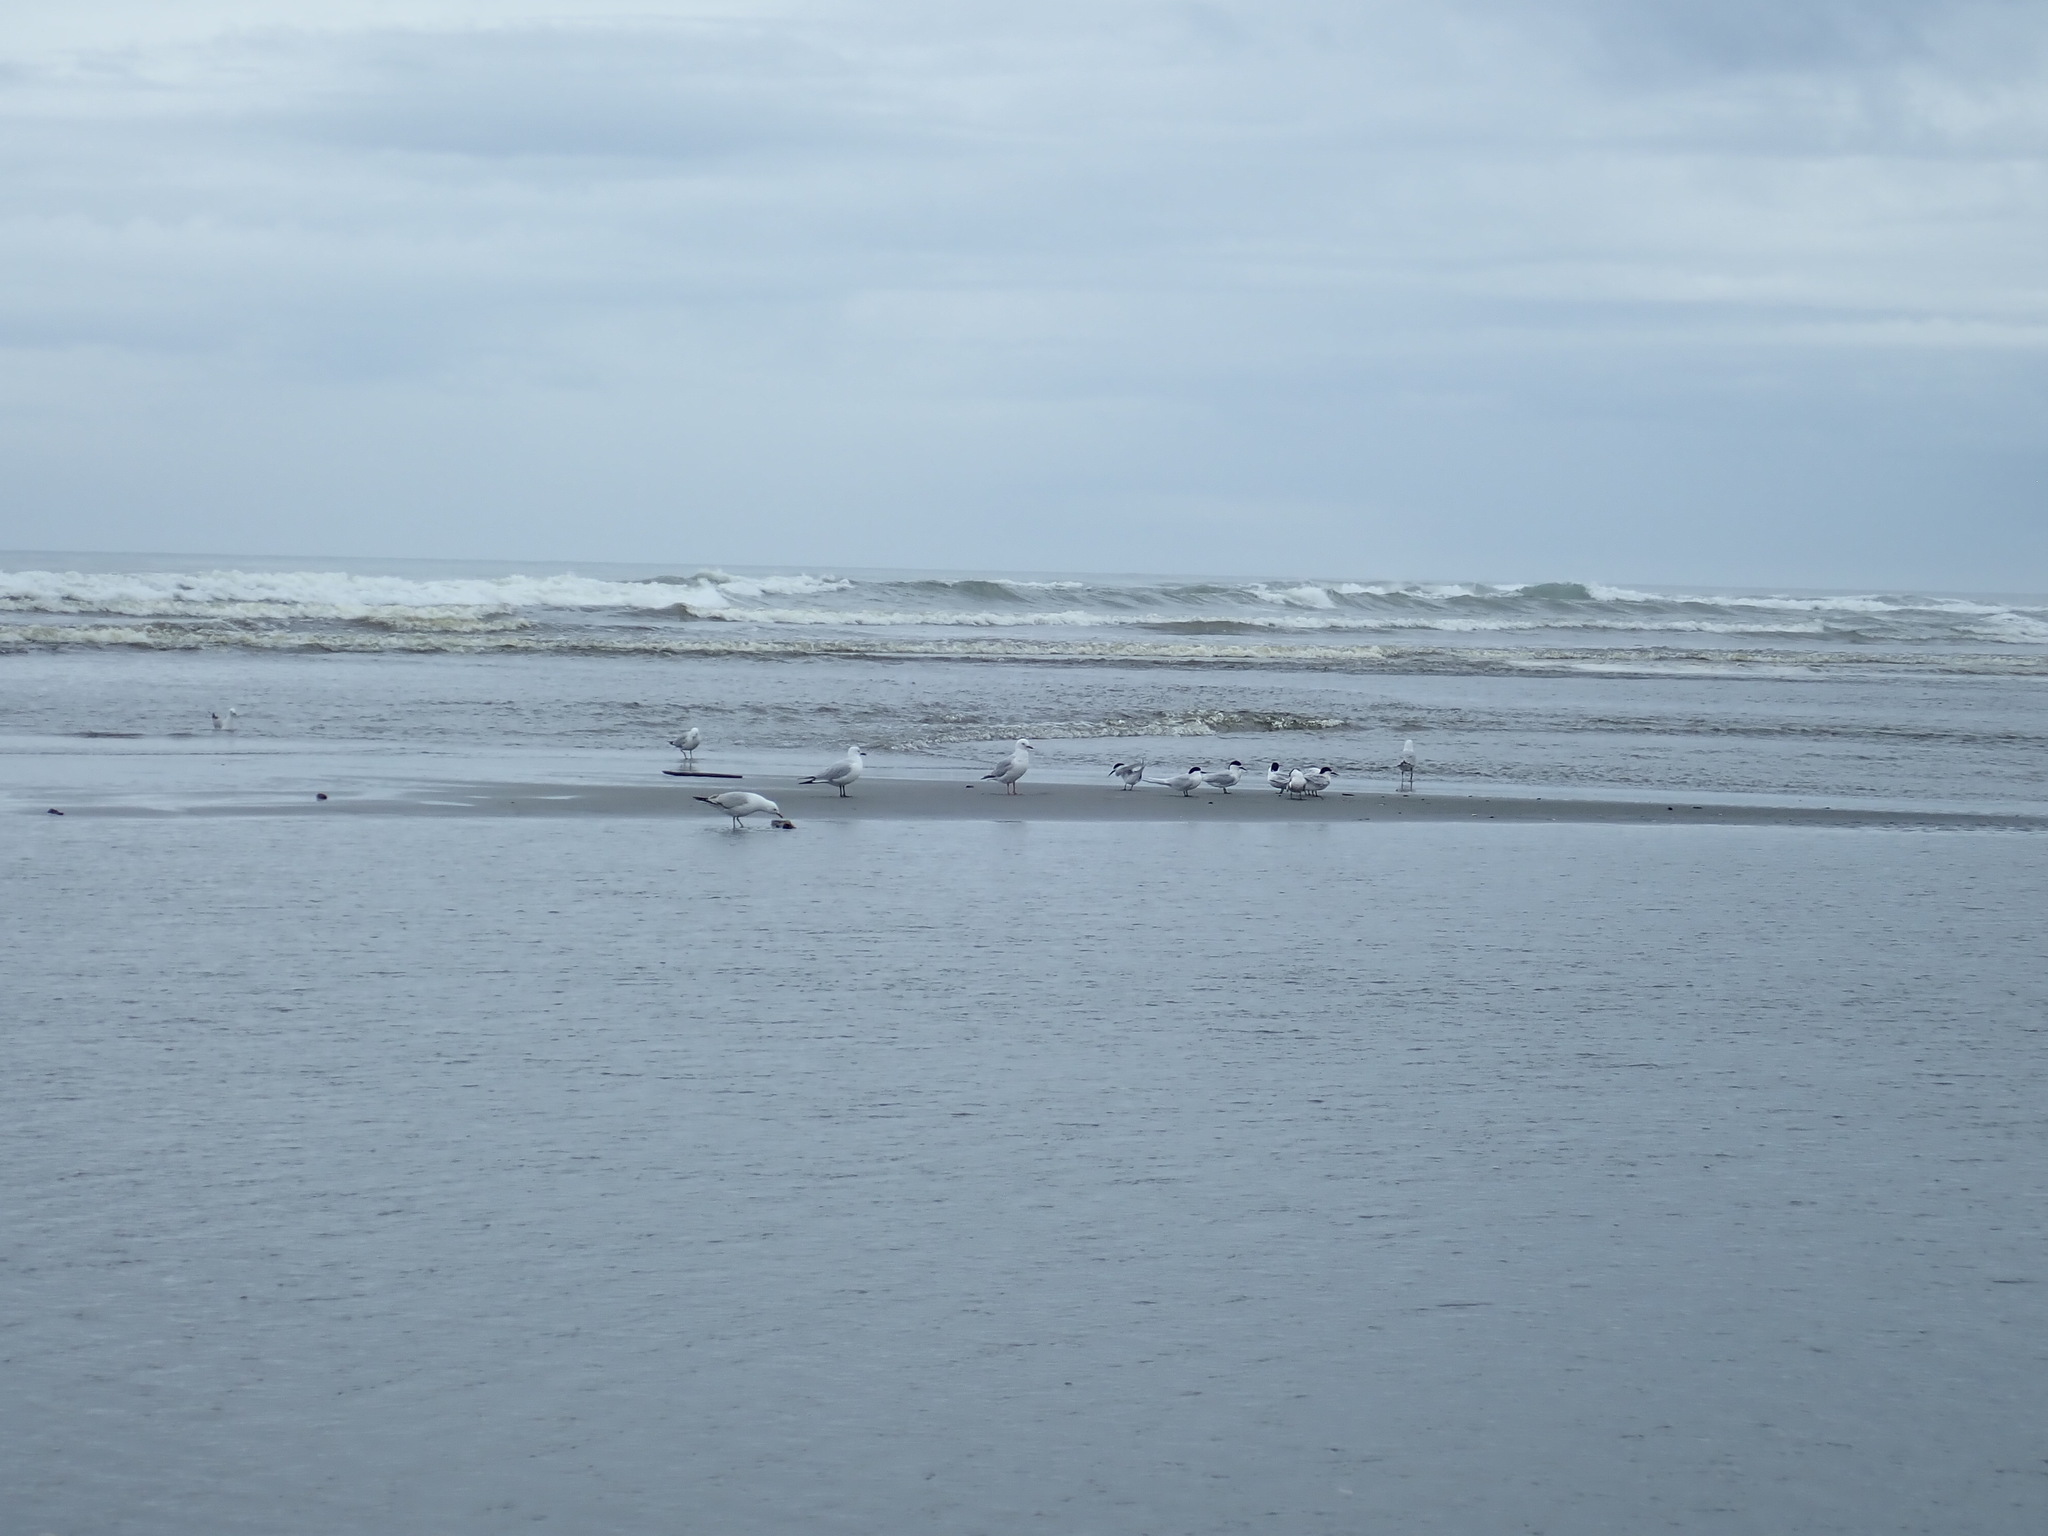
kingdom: Animalia
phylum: Chordata
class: Aves
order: Charadriiformes
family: Laridae
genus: Sterna
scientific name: Sterna striata
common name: White-fronted tern
